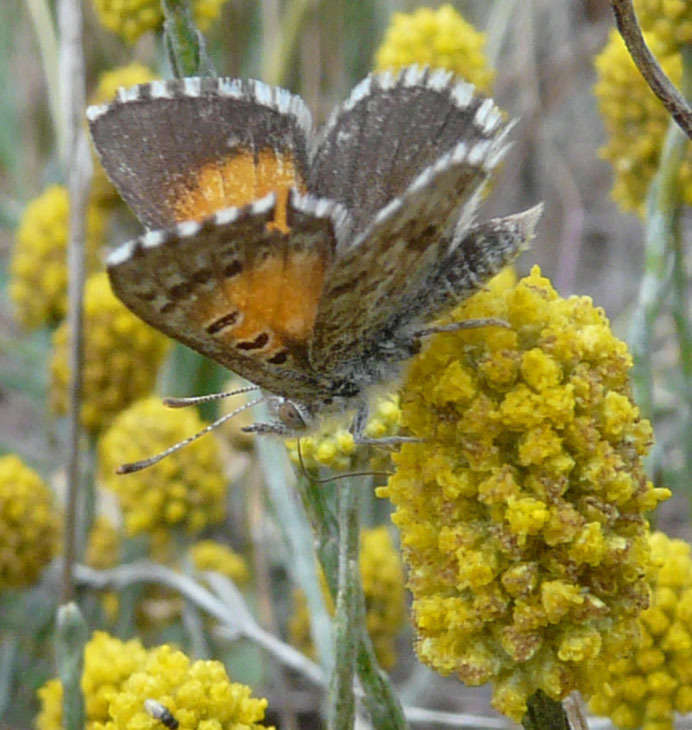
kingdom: Animalia
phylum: Arthropoda
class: Insecta
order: Lepidoptera
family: Lycaenidae
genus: Lucia
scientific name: Lucia limbaria
